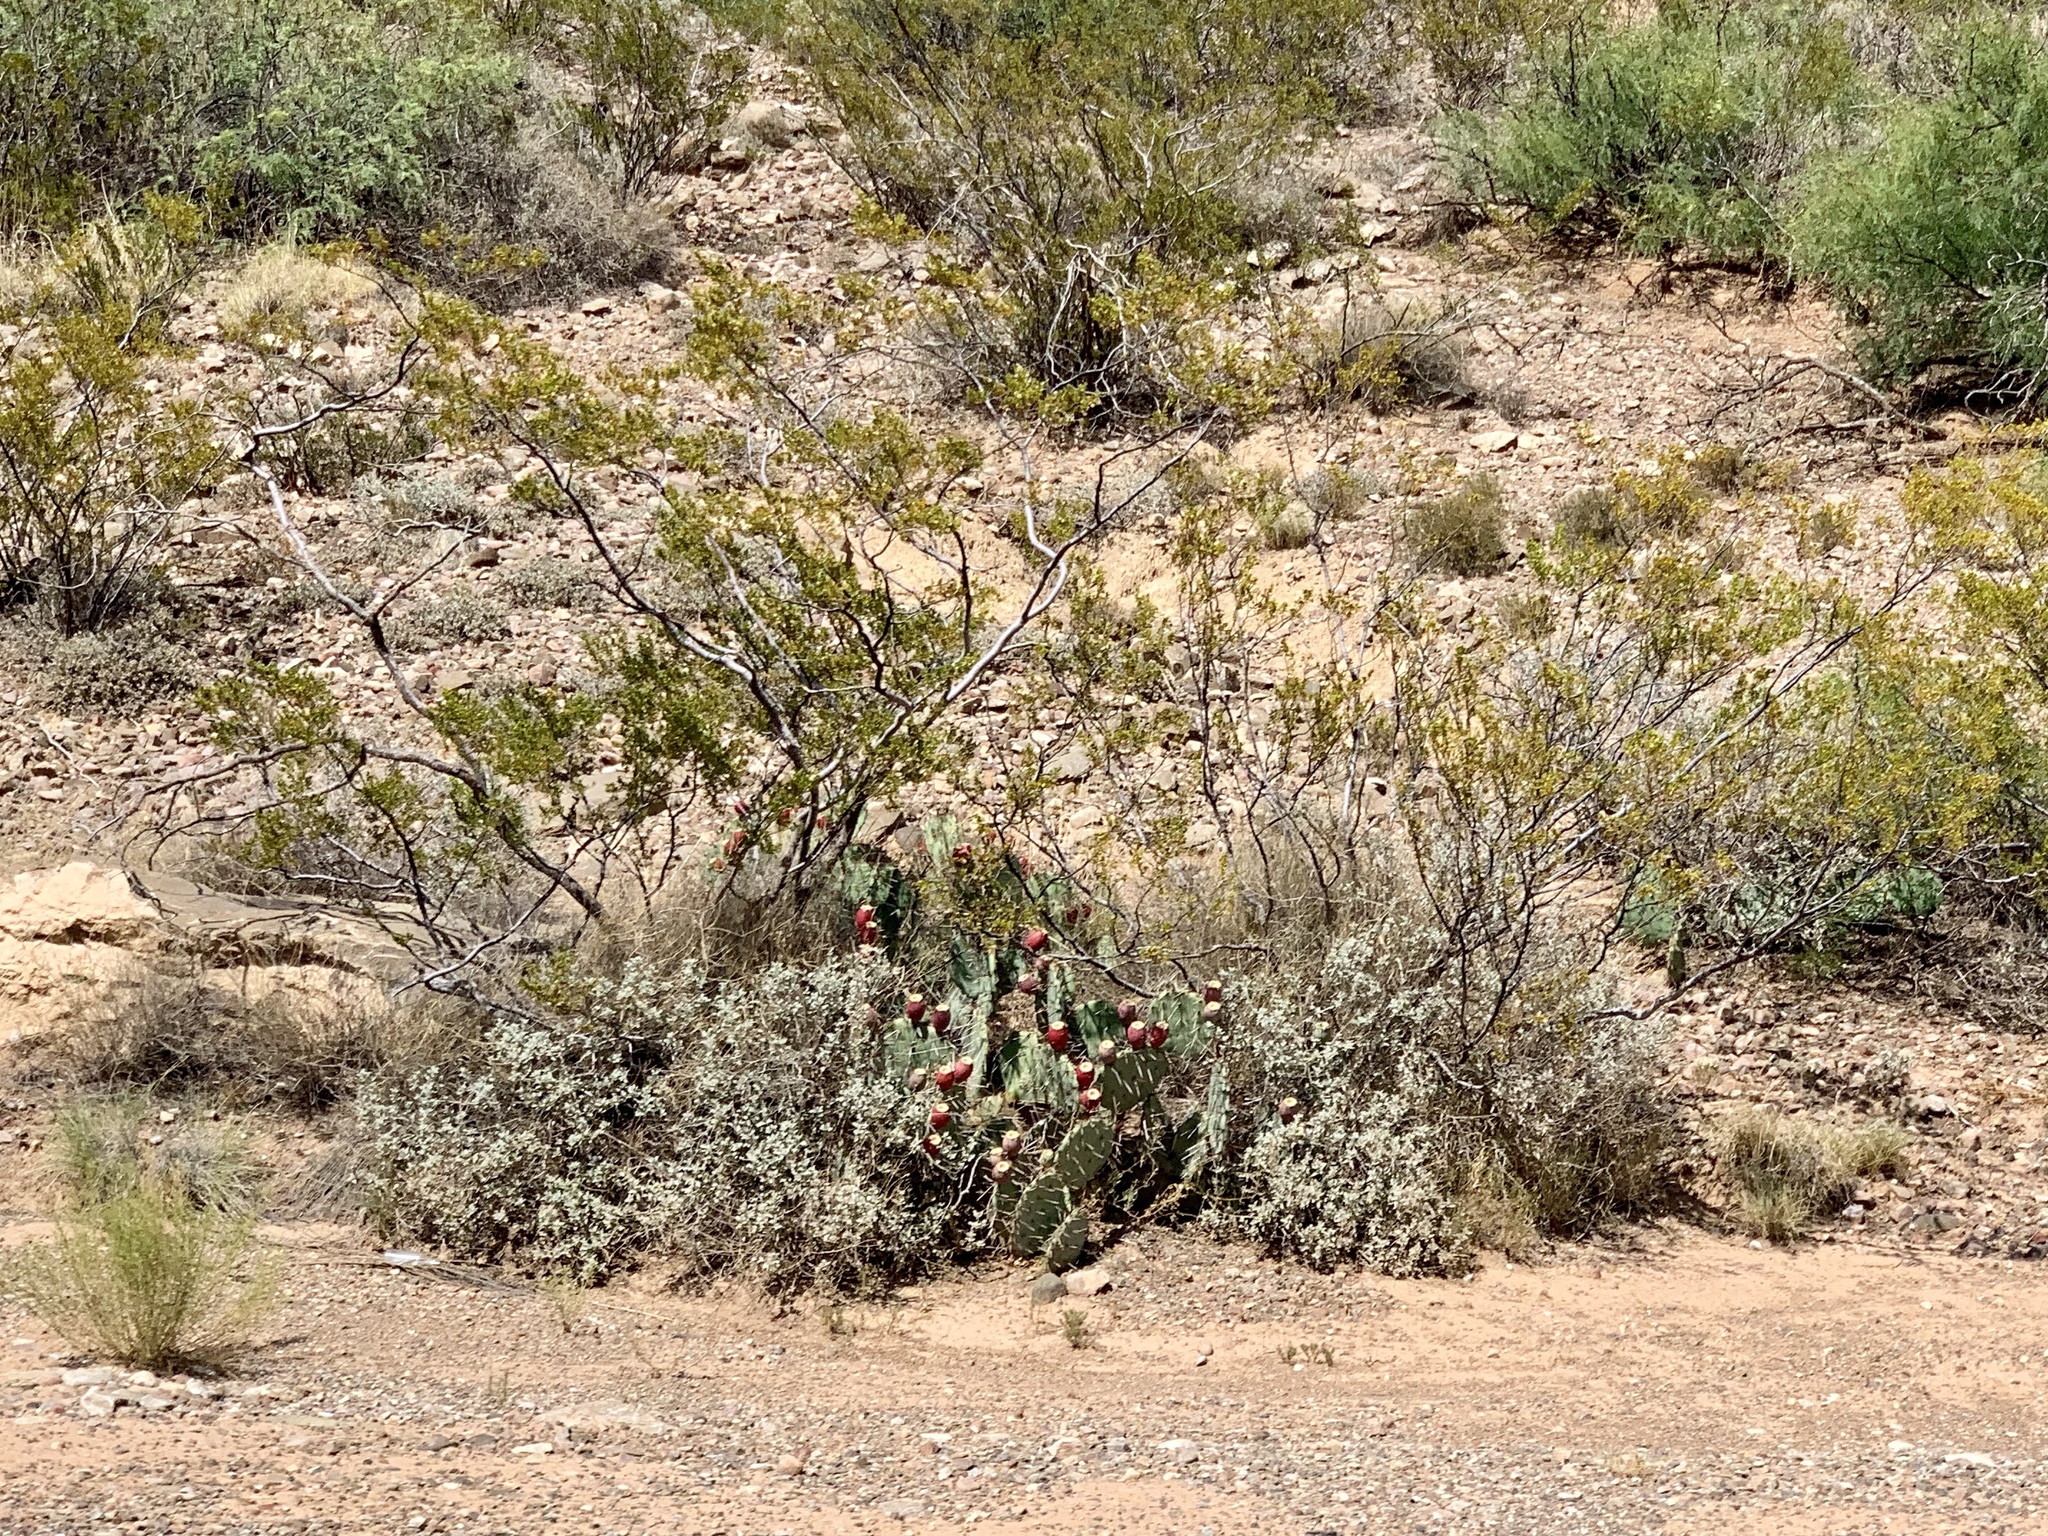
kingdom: Plantae
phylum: Tracheophyta
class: Magnoliopsida
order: Zygophyllales
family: Zygophyllaceae
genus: Larrea
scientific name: Larrea tridentata
